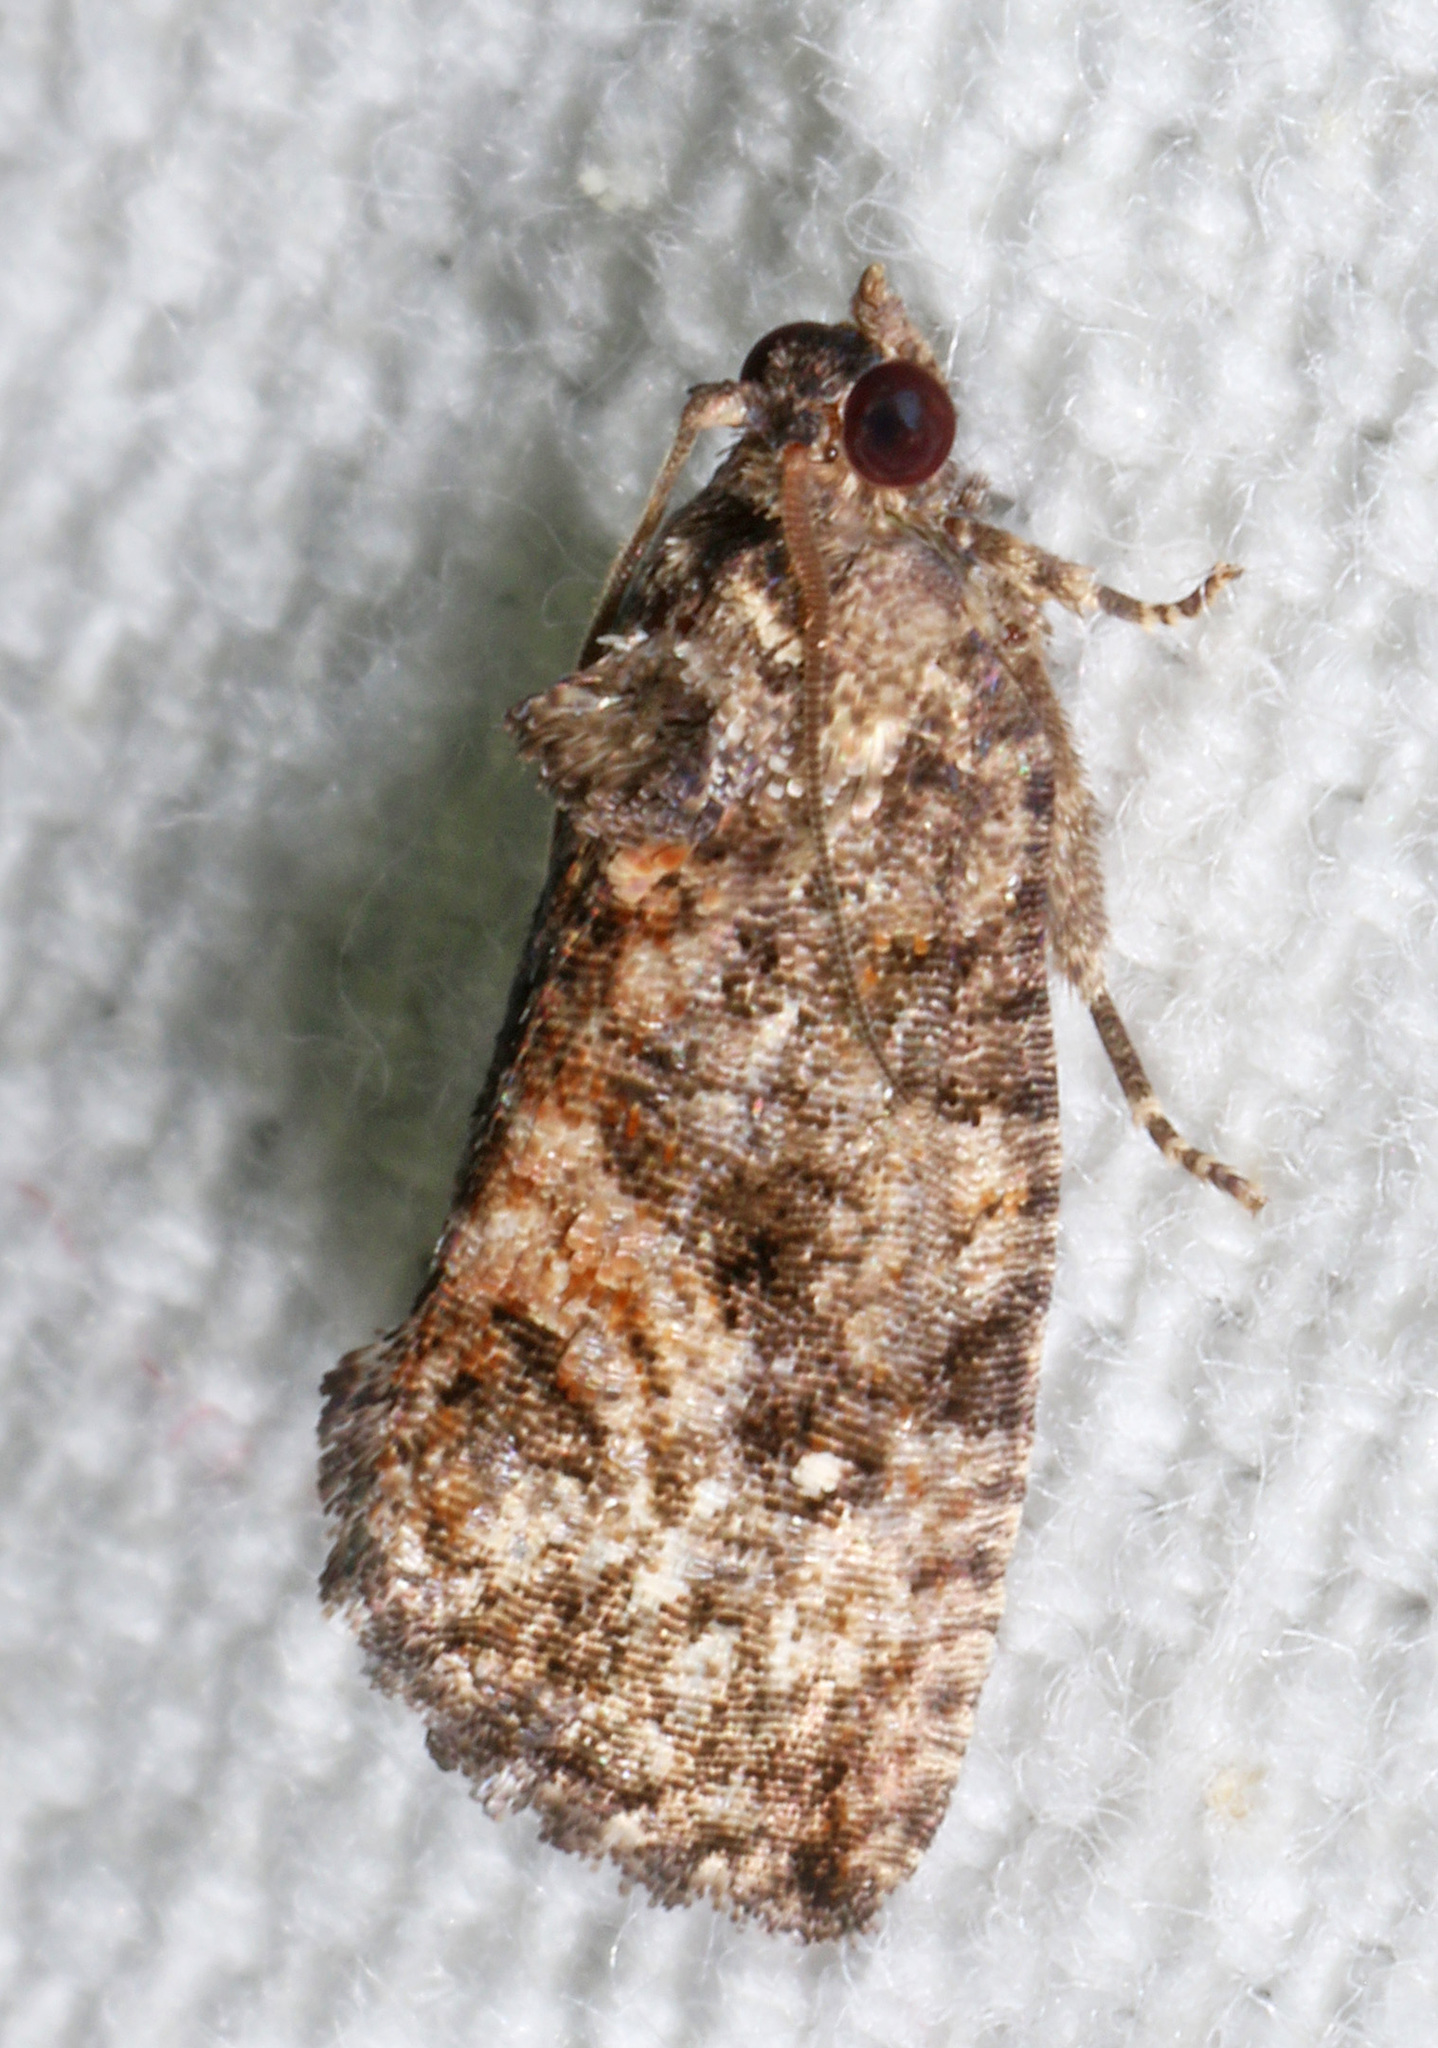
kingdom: Animalia
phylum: Arthropoda
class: Insecta
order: Lepidoptera
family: Tortricidae
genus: Gymnandrosoma
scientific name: Gymnandrosoma punctidiscanum
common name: Dotted ecdytolopha moth
